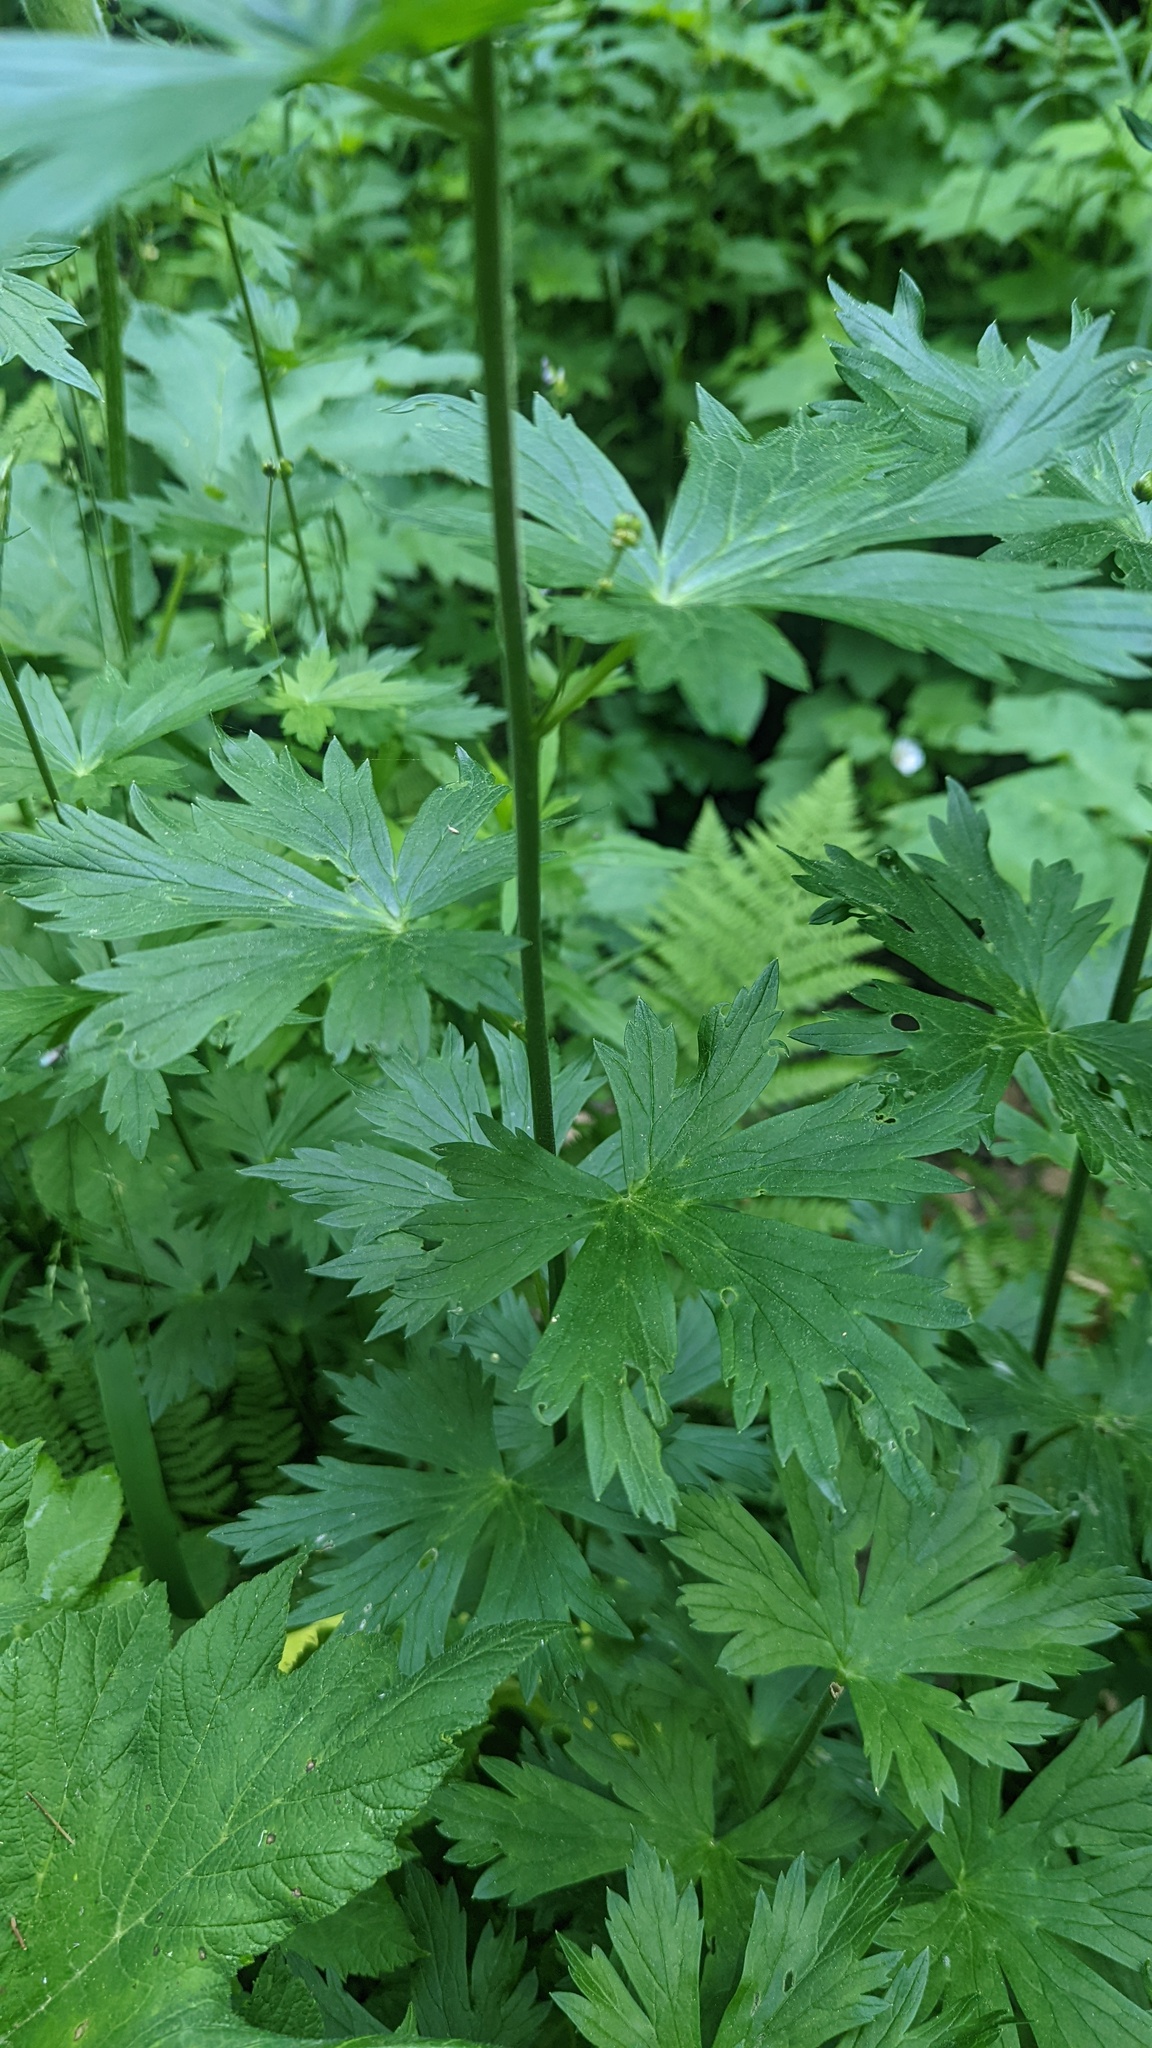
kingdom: Plantae
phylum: Tracheophyta
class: Magnoliopsida
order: Ranunculales
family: Ranunculaceae
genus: Aconitum
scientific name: Aconitum columbianum
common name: Columbia aconite
